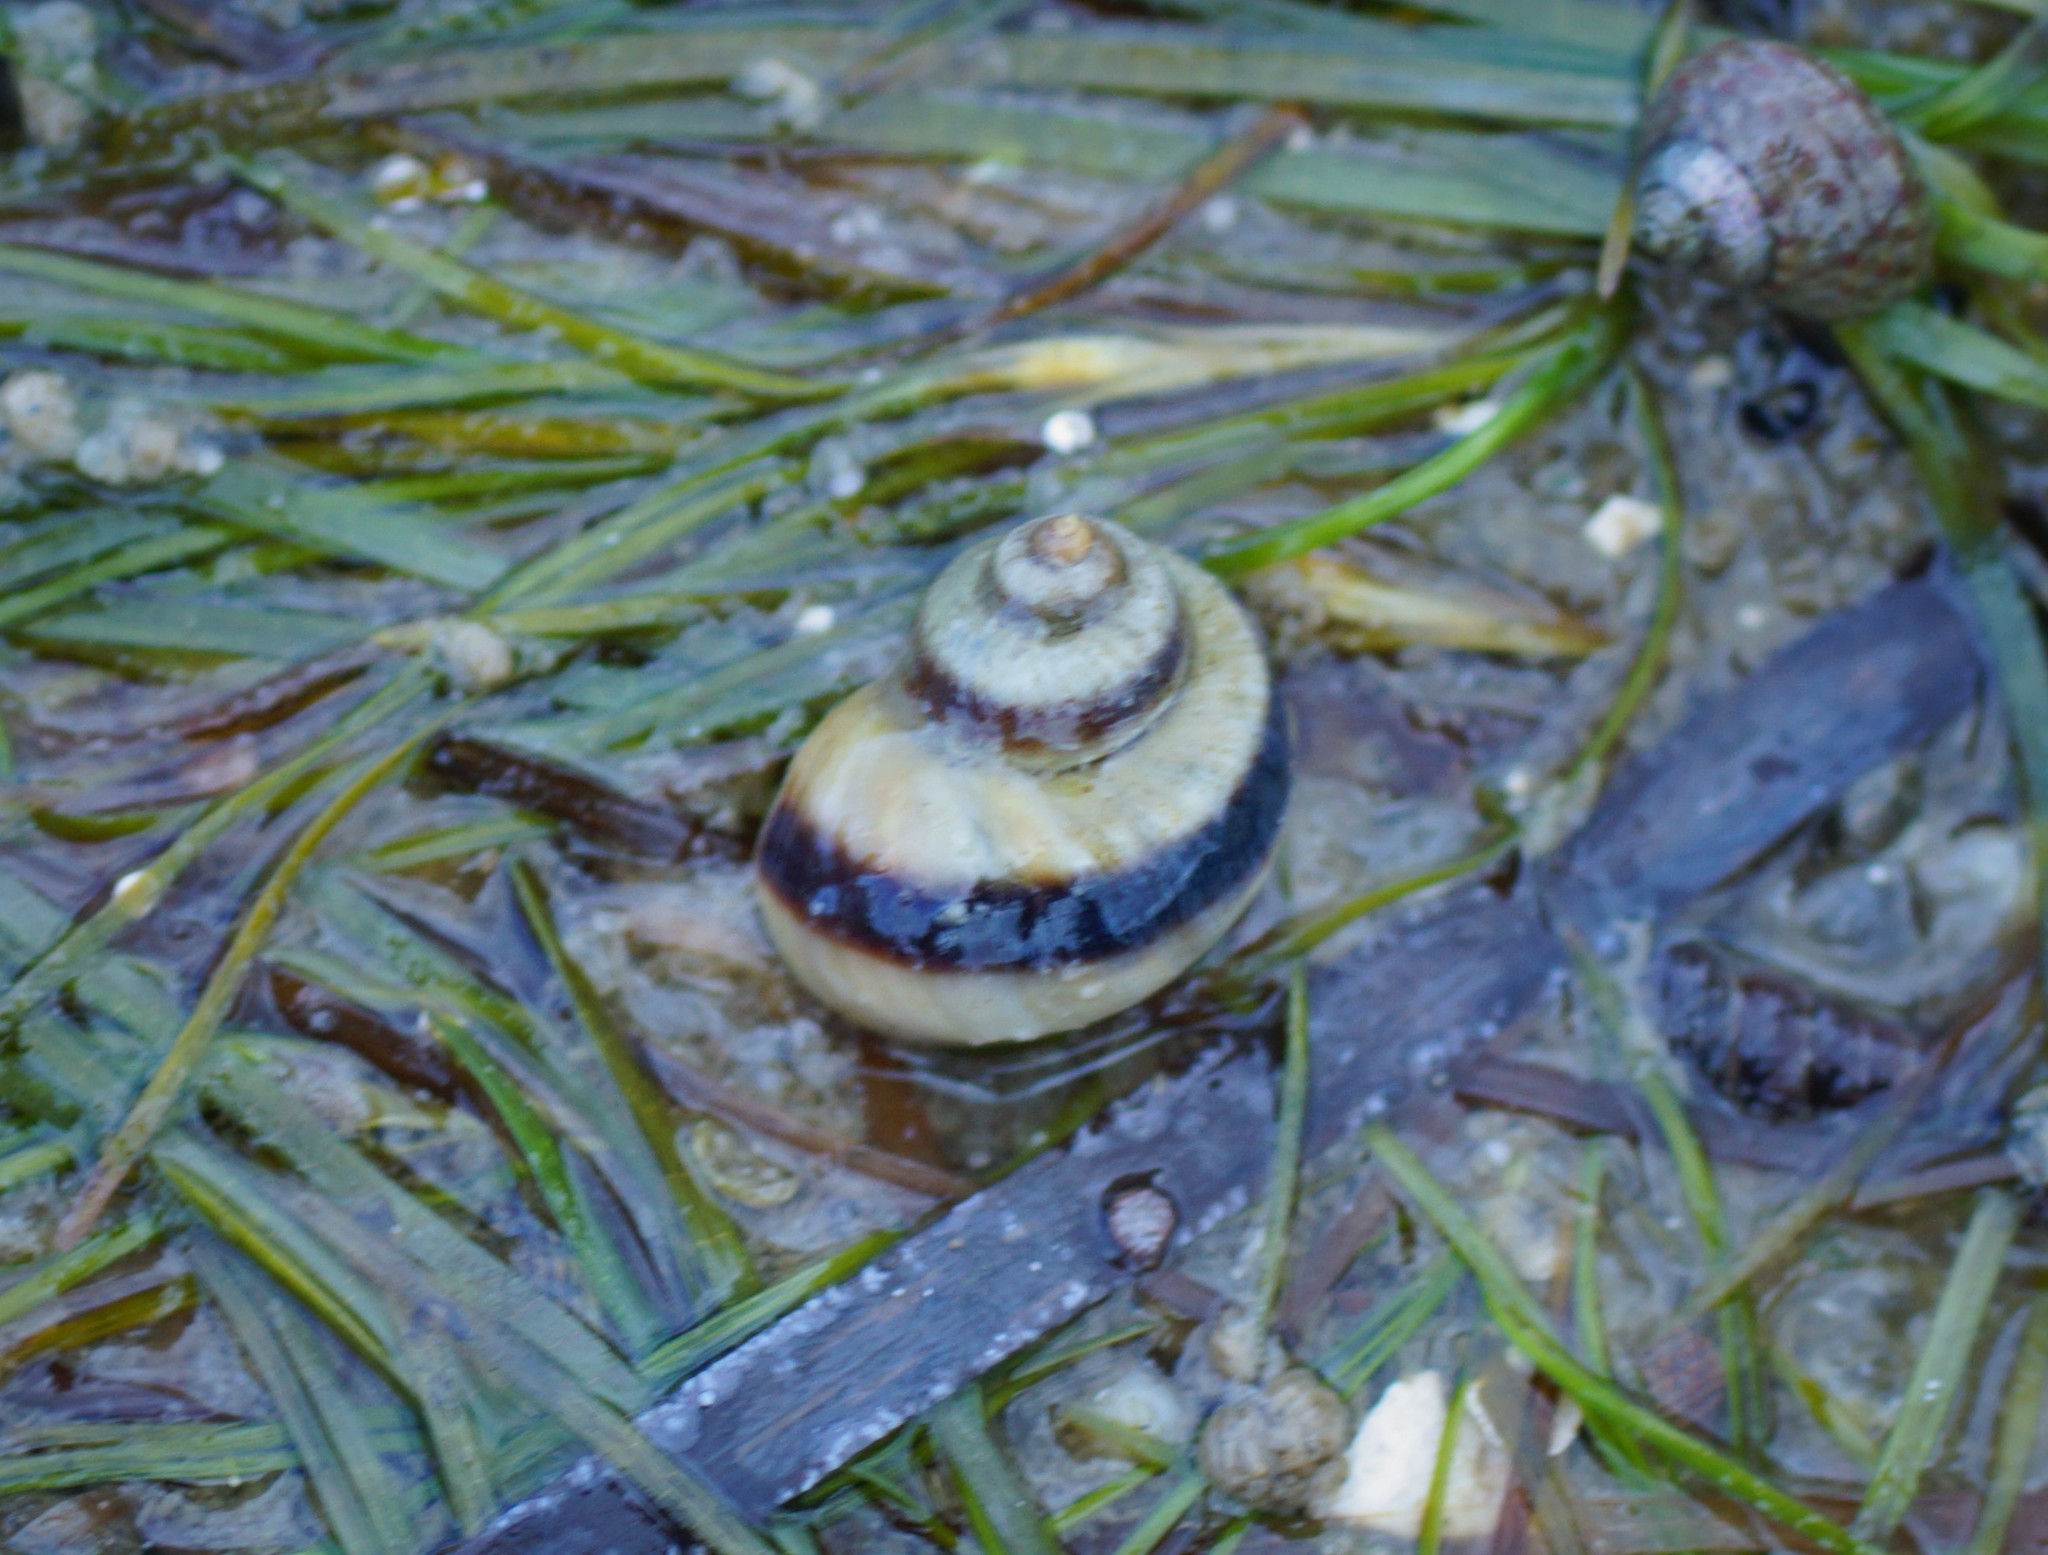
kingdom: Animalia
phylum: Mollusca
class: Gastropoda
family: Amphibolidae
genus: Salinator
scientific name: Salinator fragilis
